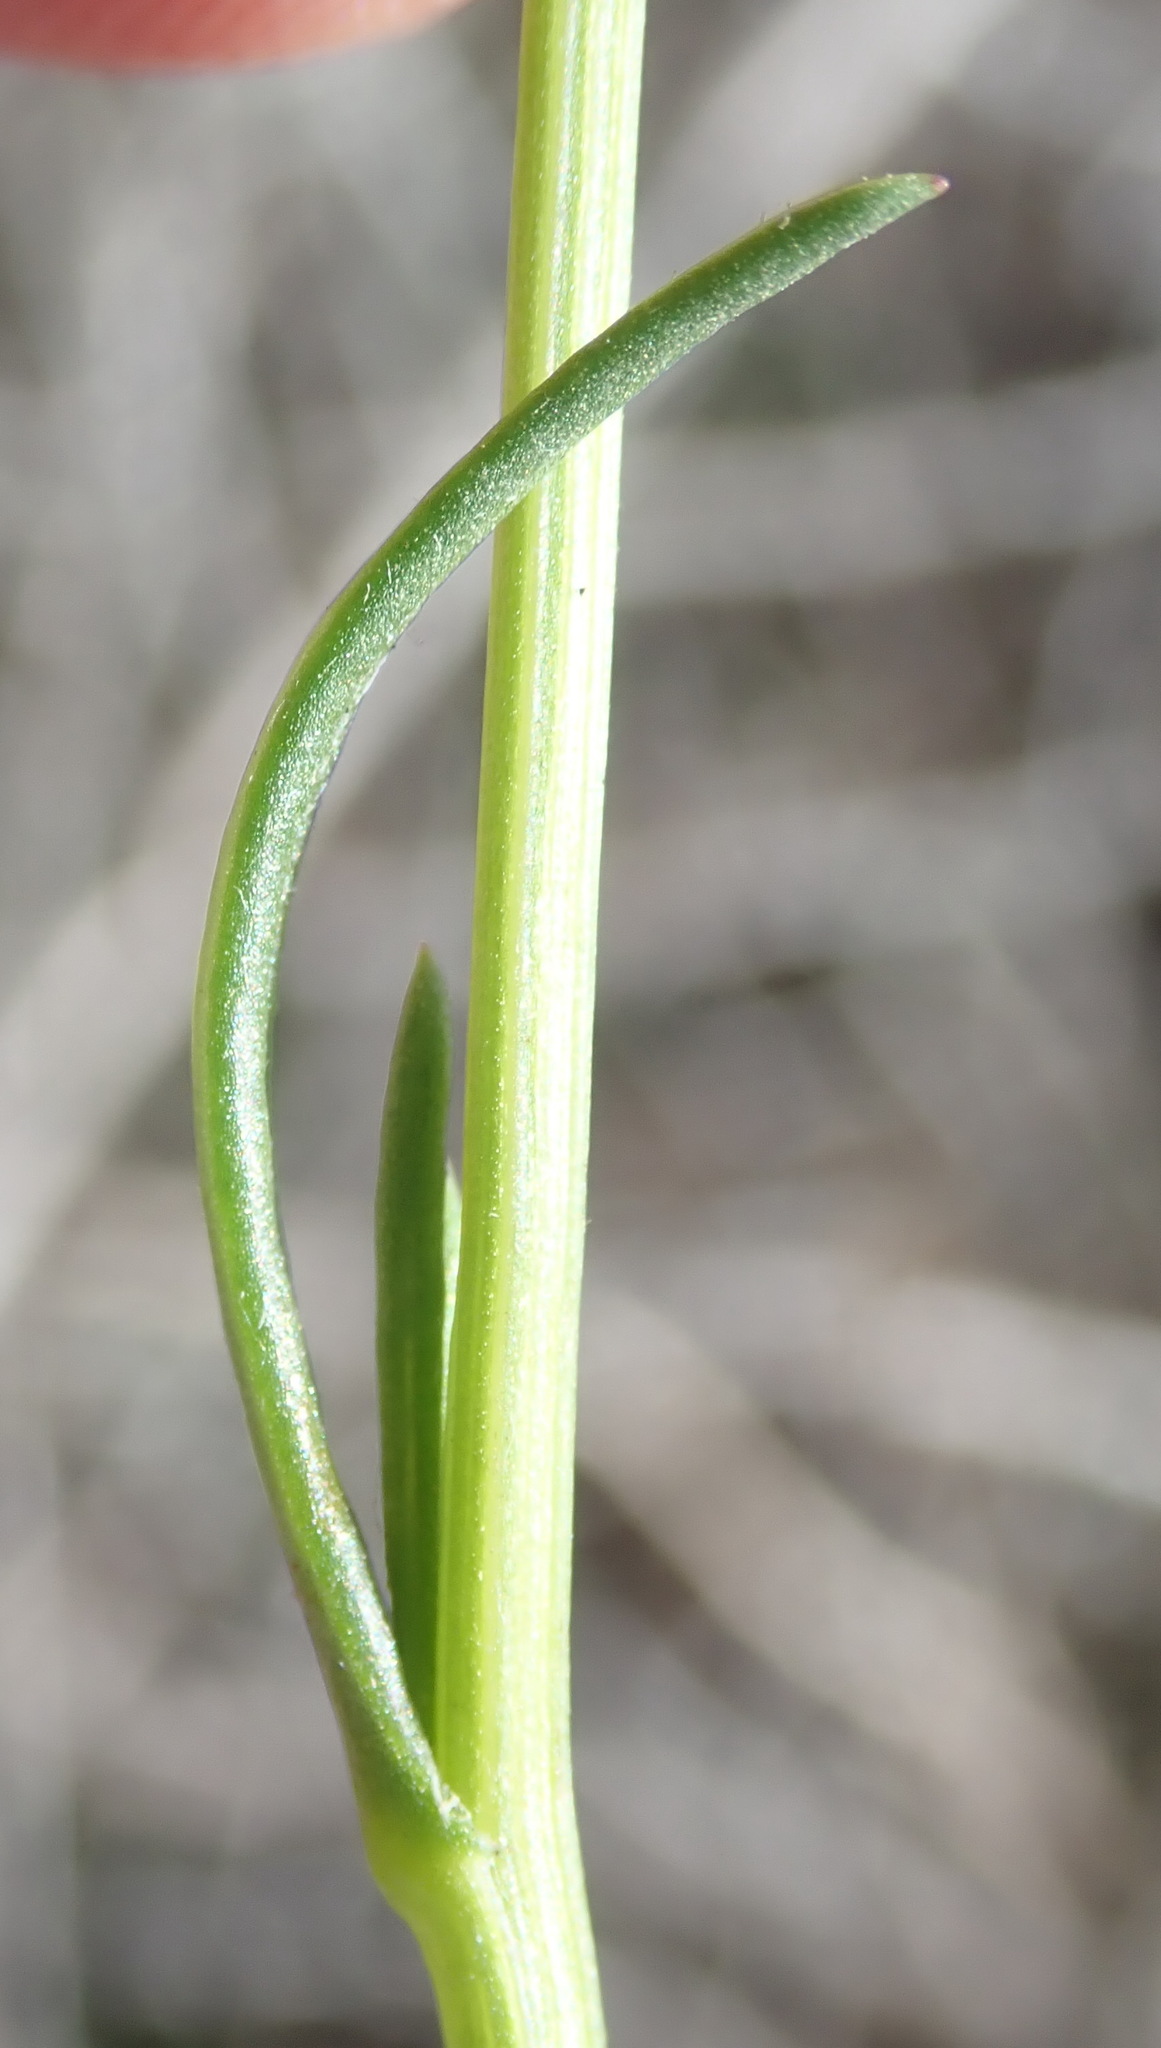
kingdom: Plantae
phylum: Tracheophyta
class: Magnoliopsida
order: Asterales
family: Asteraceae
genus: Senecio
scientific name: Senecio linifolius
